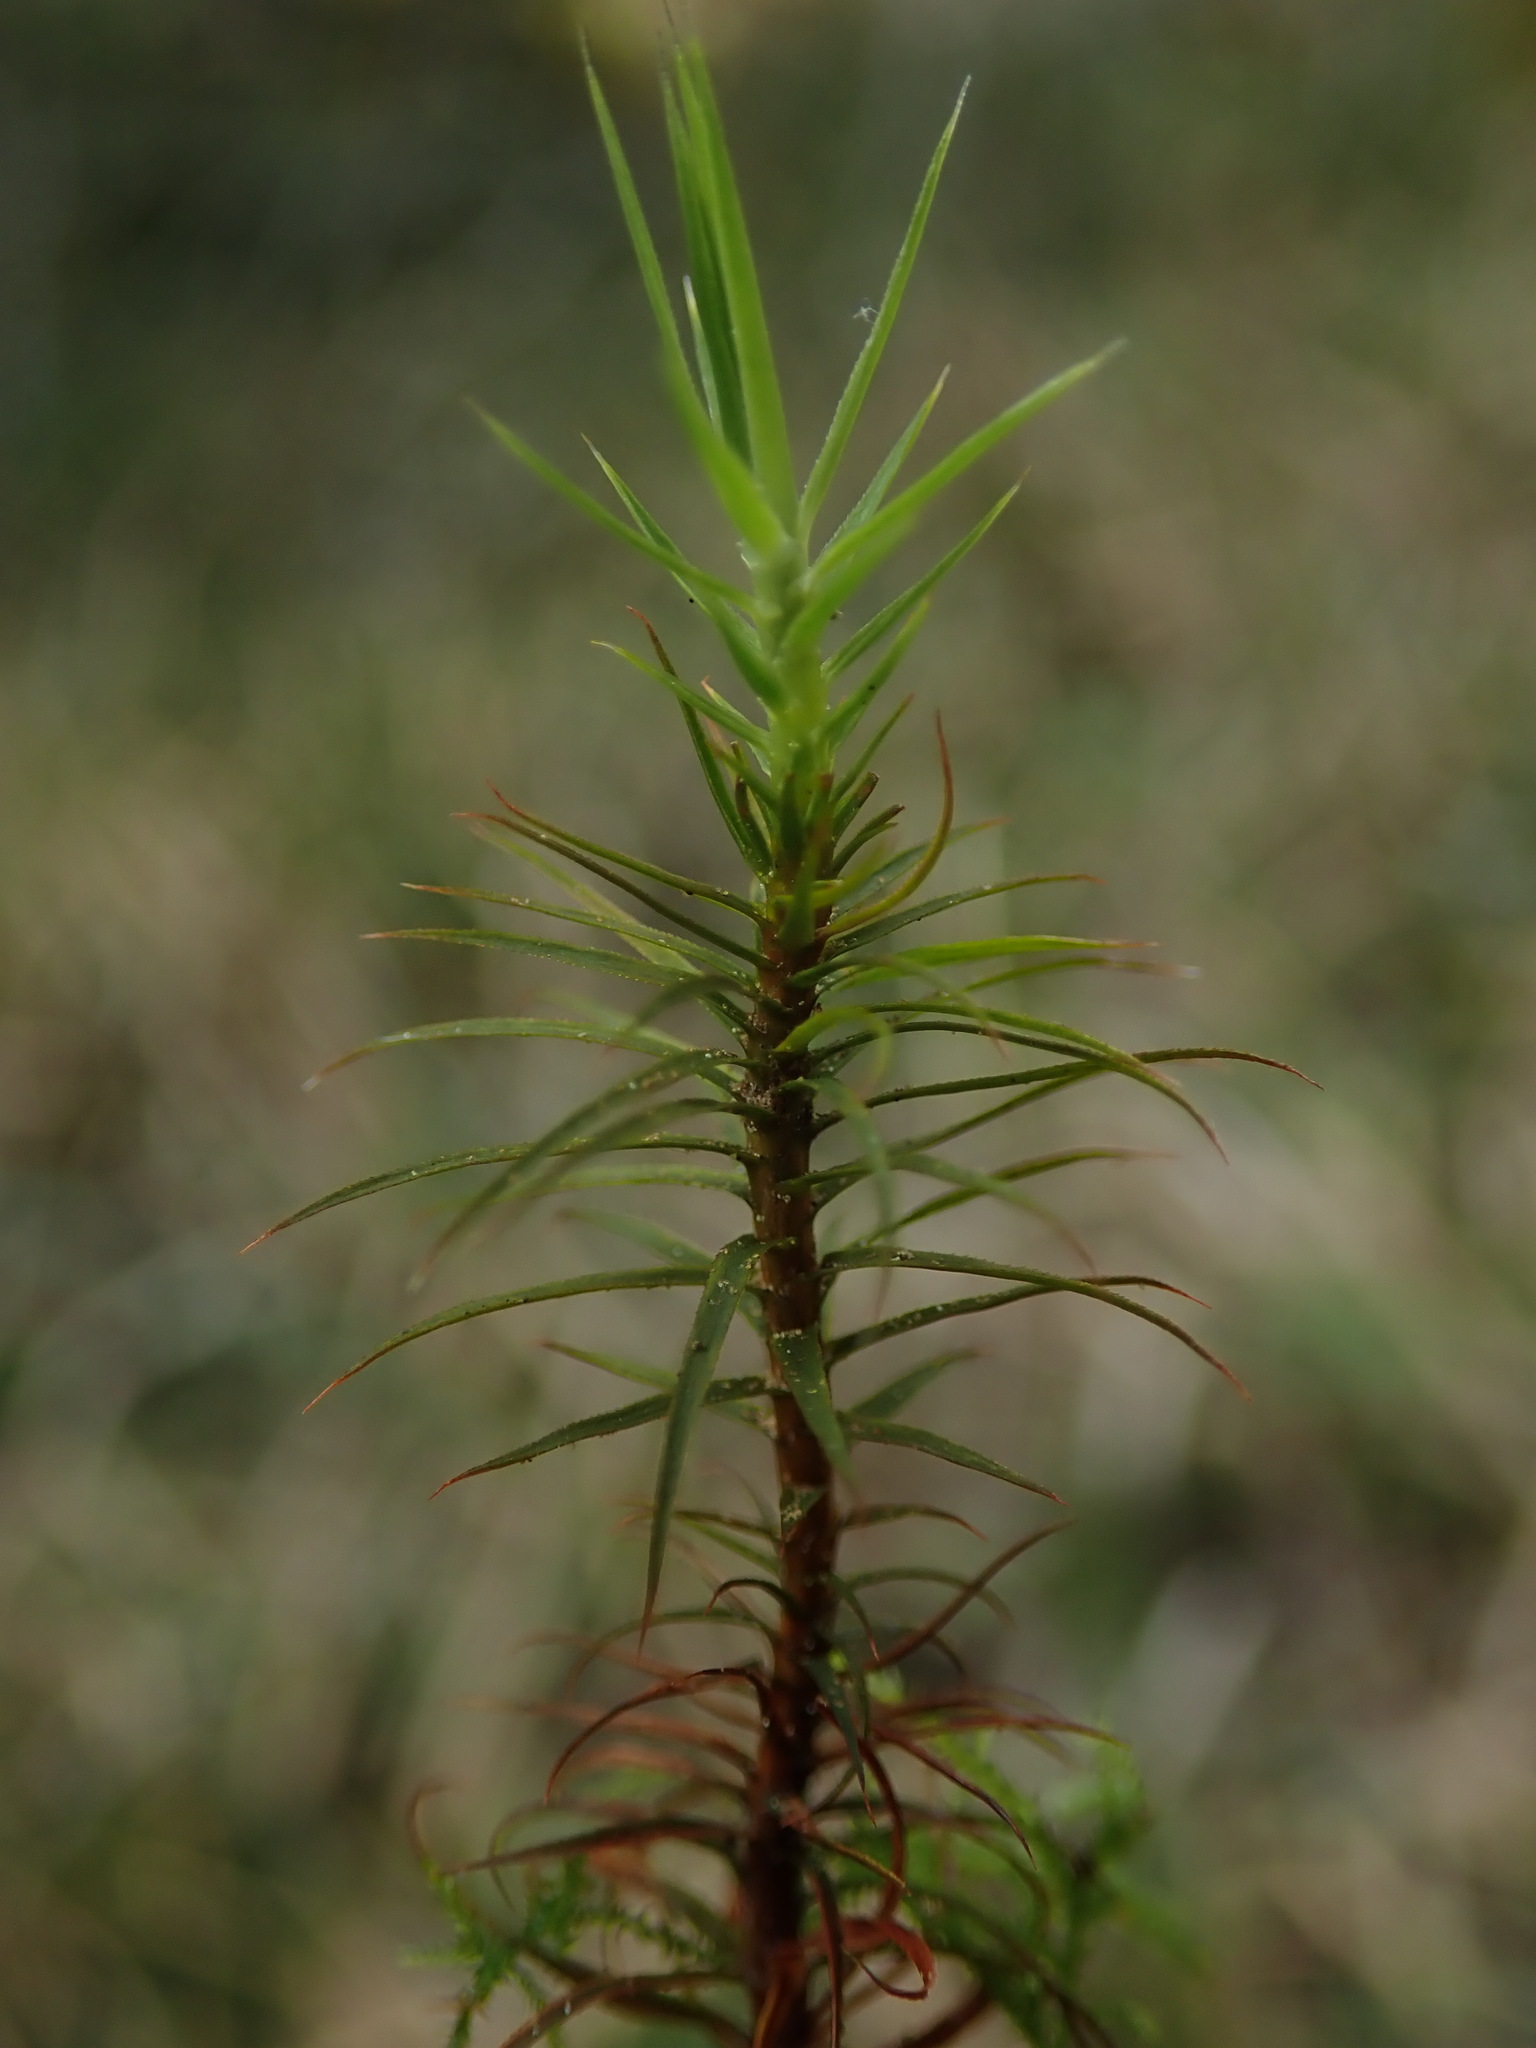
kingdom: Plantae
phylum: Bryophyta
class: Polytrichopsida
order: Polytrichales
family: Polytrichaceae
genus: Polytrichum
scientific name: Polytrichum commune
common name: Common haircap
